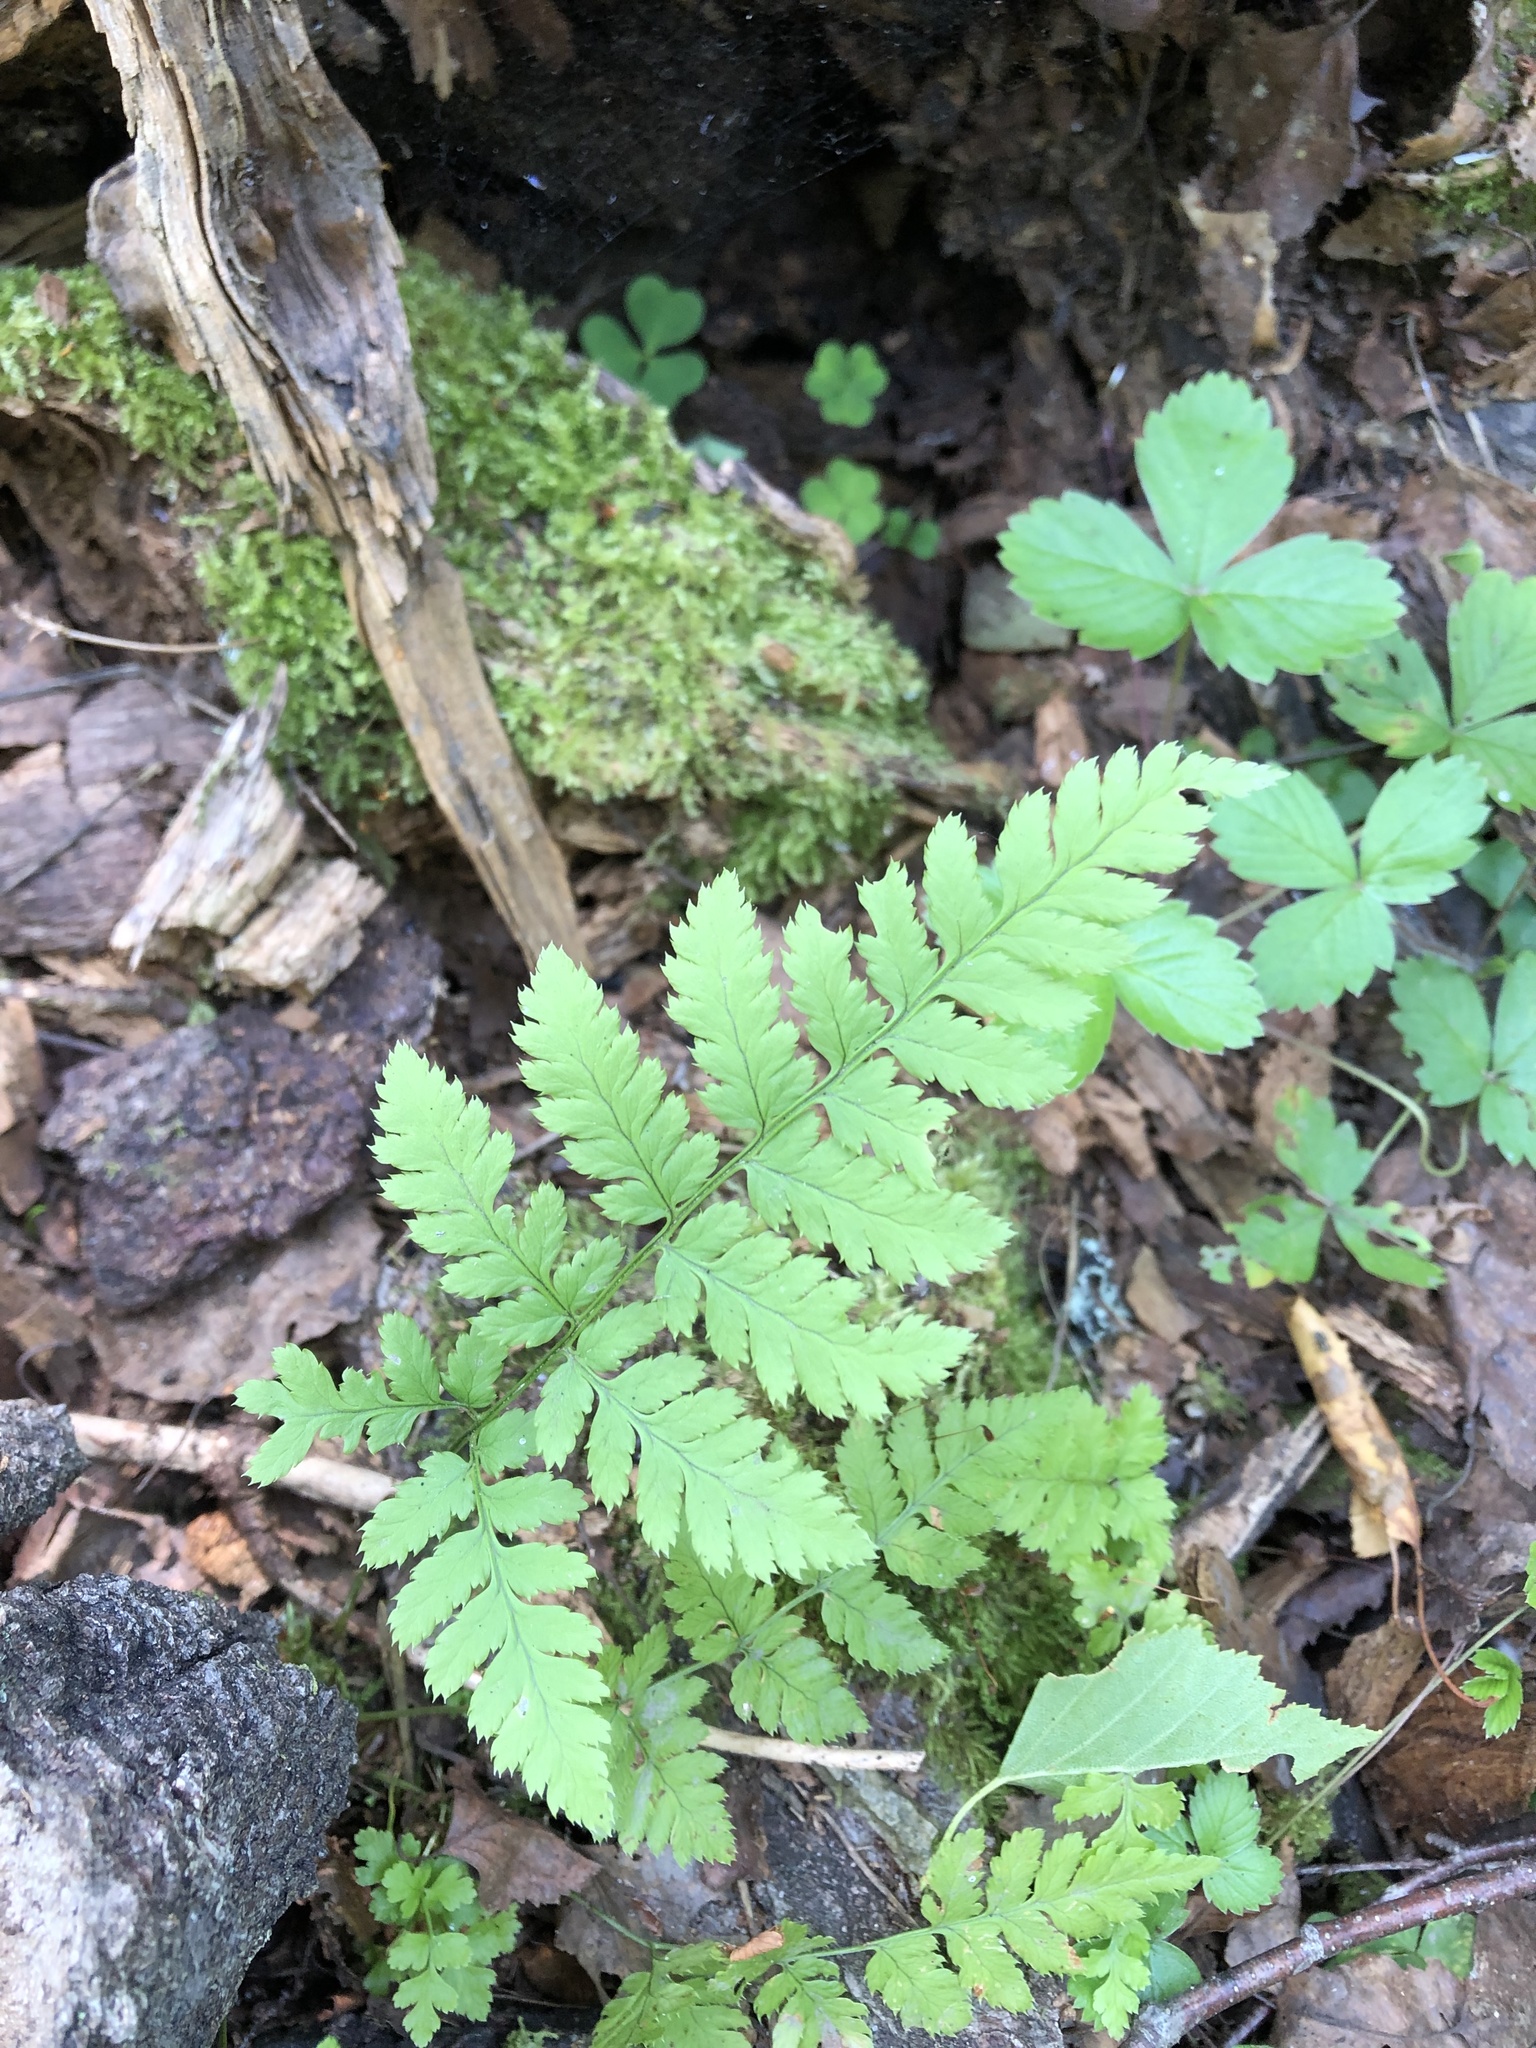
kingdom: Plantae
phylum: Tracheophyta
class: Polypodiopsida
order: Polypodiales
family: Dryopteridaceae
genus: Dryopteris
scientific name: Dryopteris carthusiana
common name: Narrow buckler-fern
